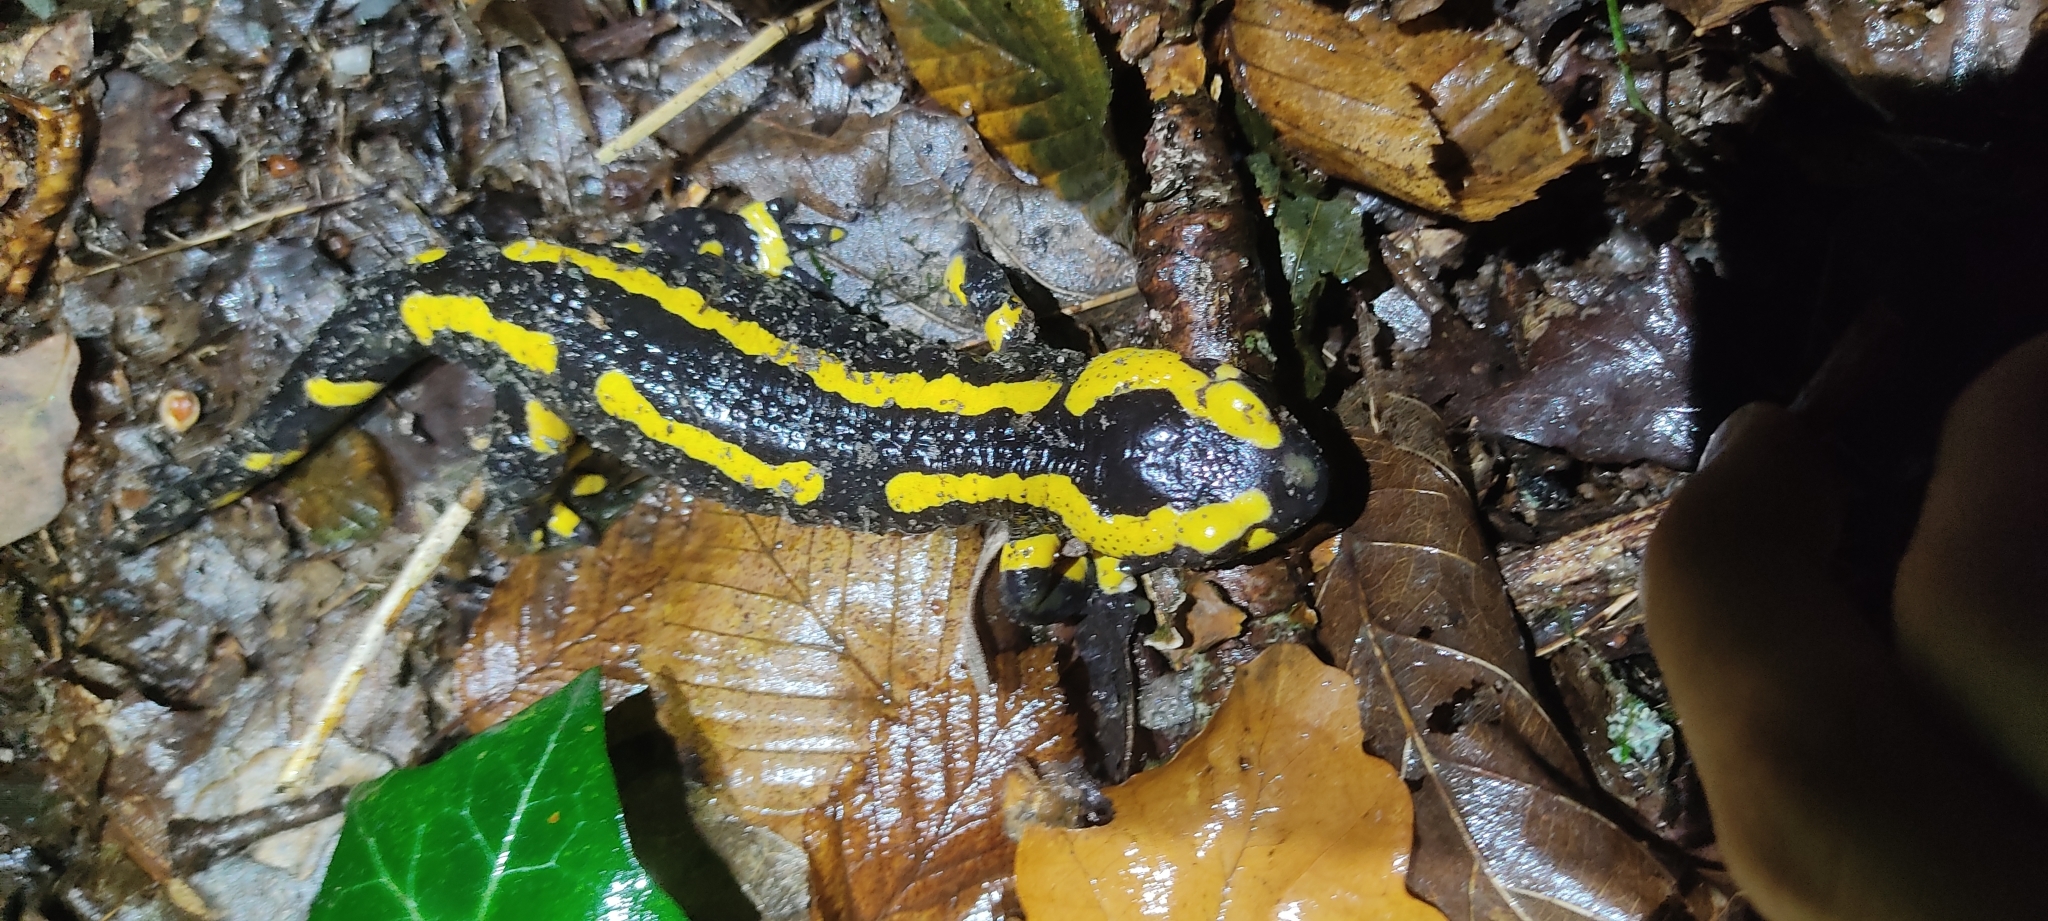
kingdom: Animalia
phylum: Chordata
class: Amphibia
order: Caudata
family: Salamandridae
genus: Salamandra
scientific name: Salamandra salamandra
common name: Fire salamander
